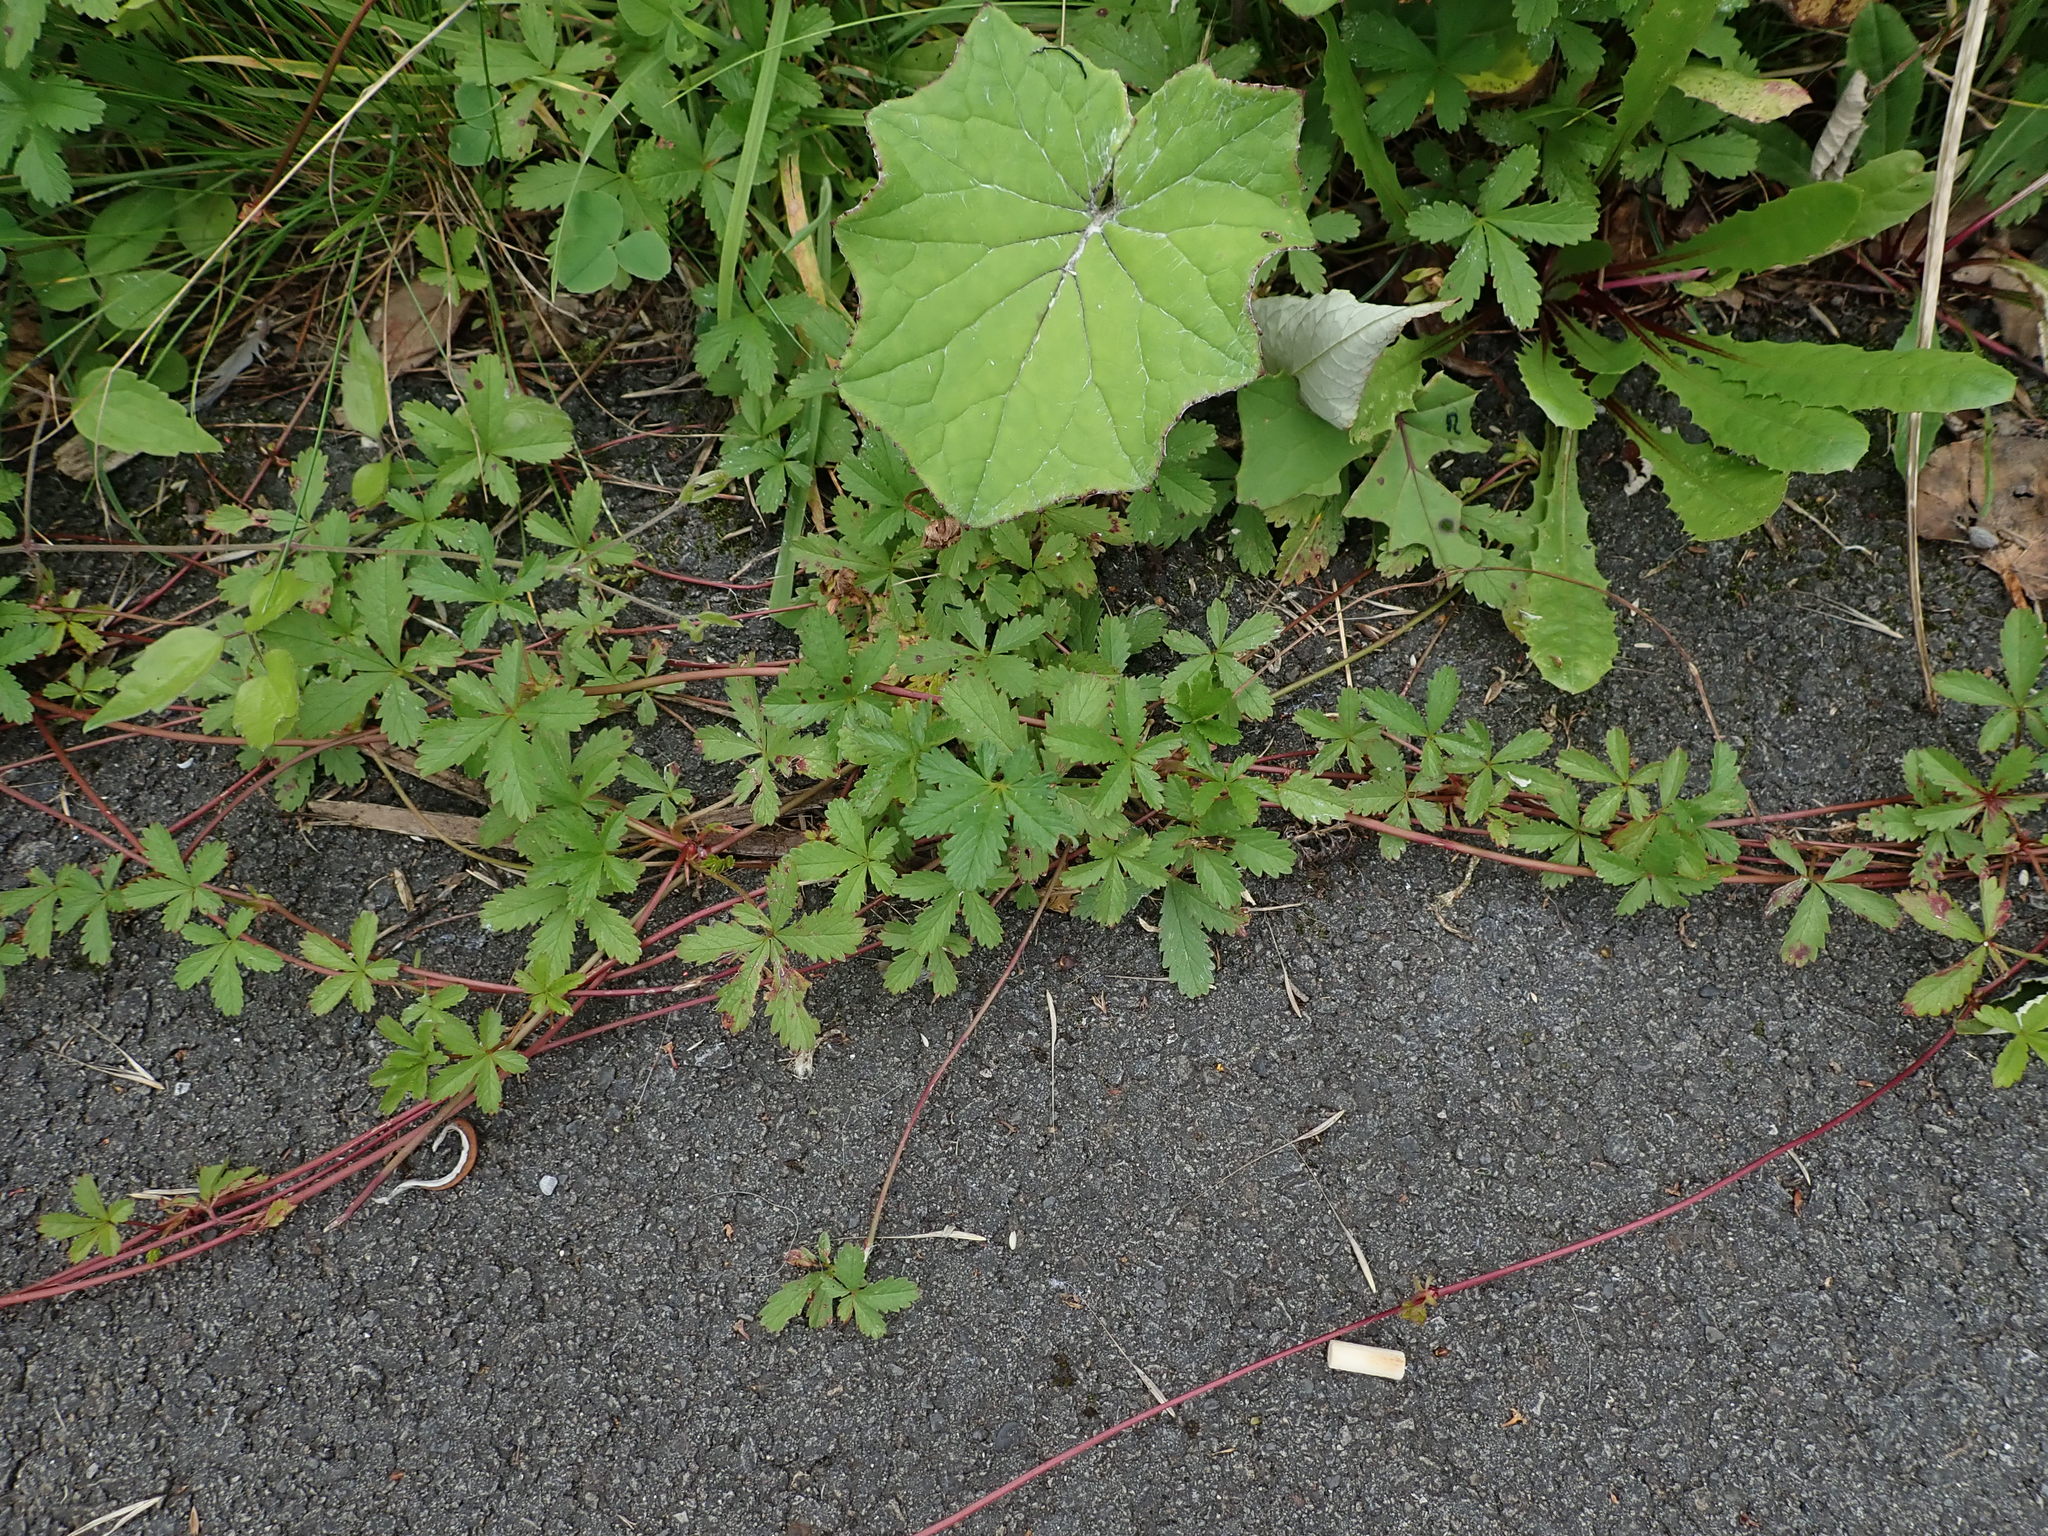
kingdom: Plantae
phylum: Tracheophyta
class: Magnoliopsida
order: Rosales
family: Rosaceae
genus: Potentilla
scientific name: Potentilla reptans
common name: Creeping cinquefoil
